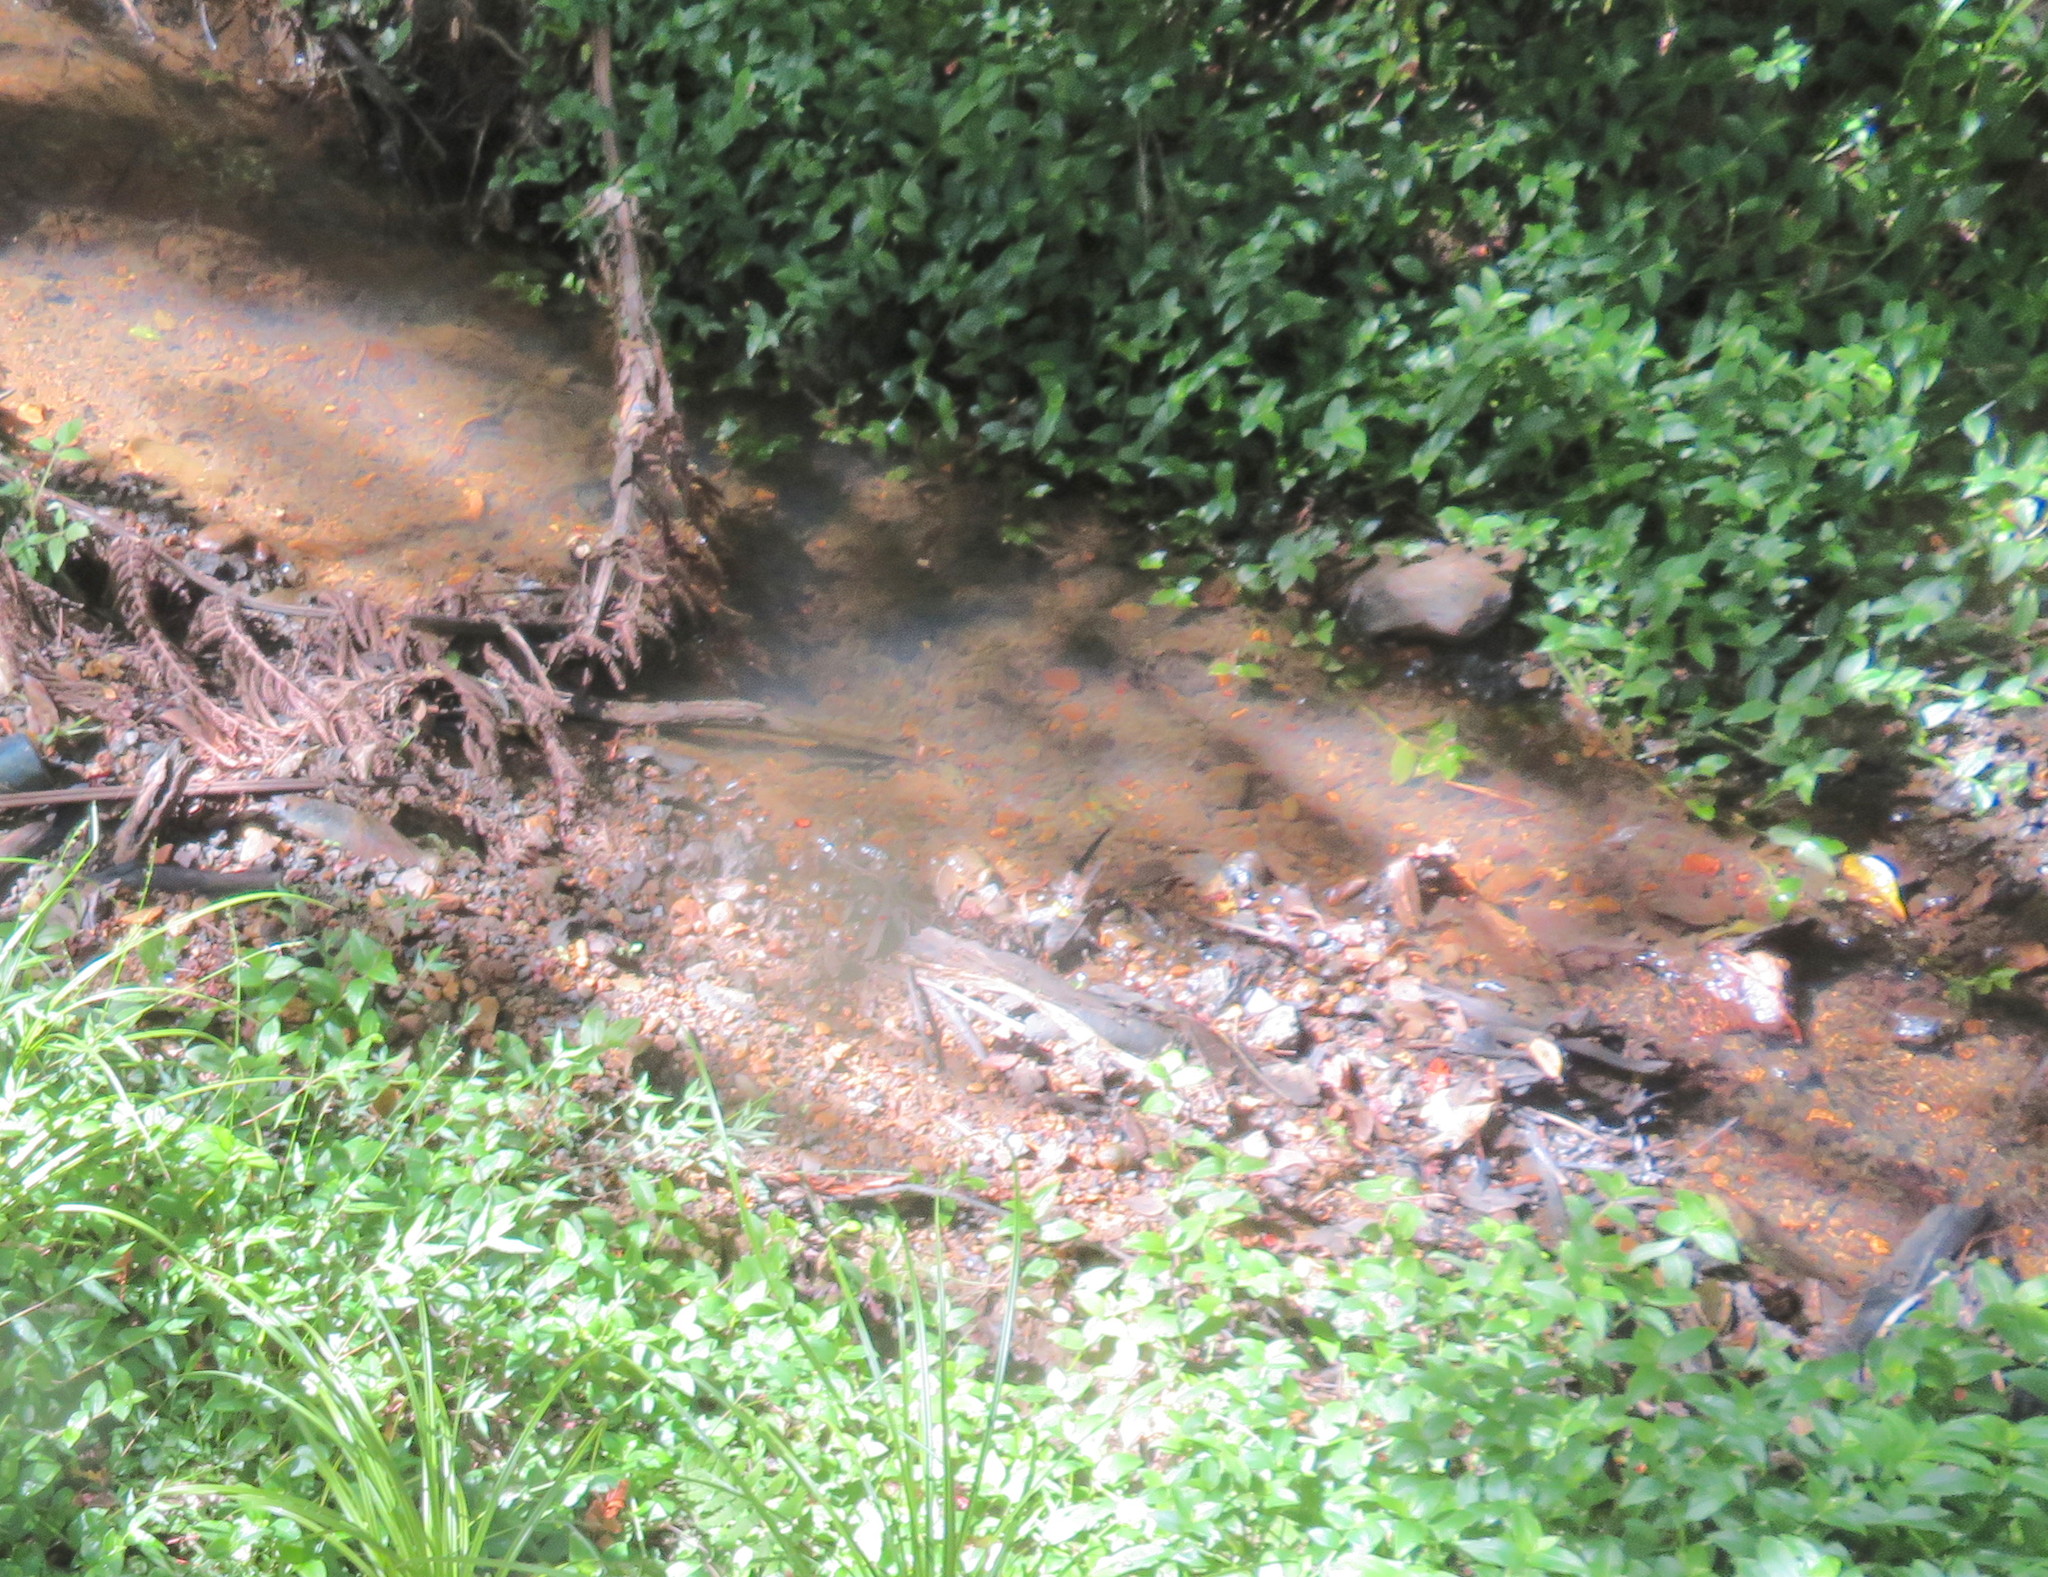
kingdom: Plantae
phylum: Tracheophyta
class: Liliopsida
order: Commelinales
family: Commelinaceae
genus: Tradescantia
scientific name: Tradescantia fluminensis
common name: Wandering-jew
